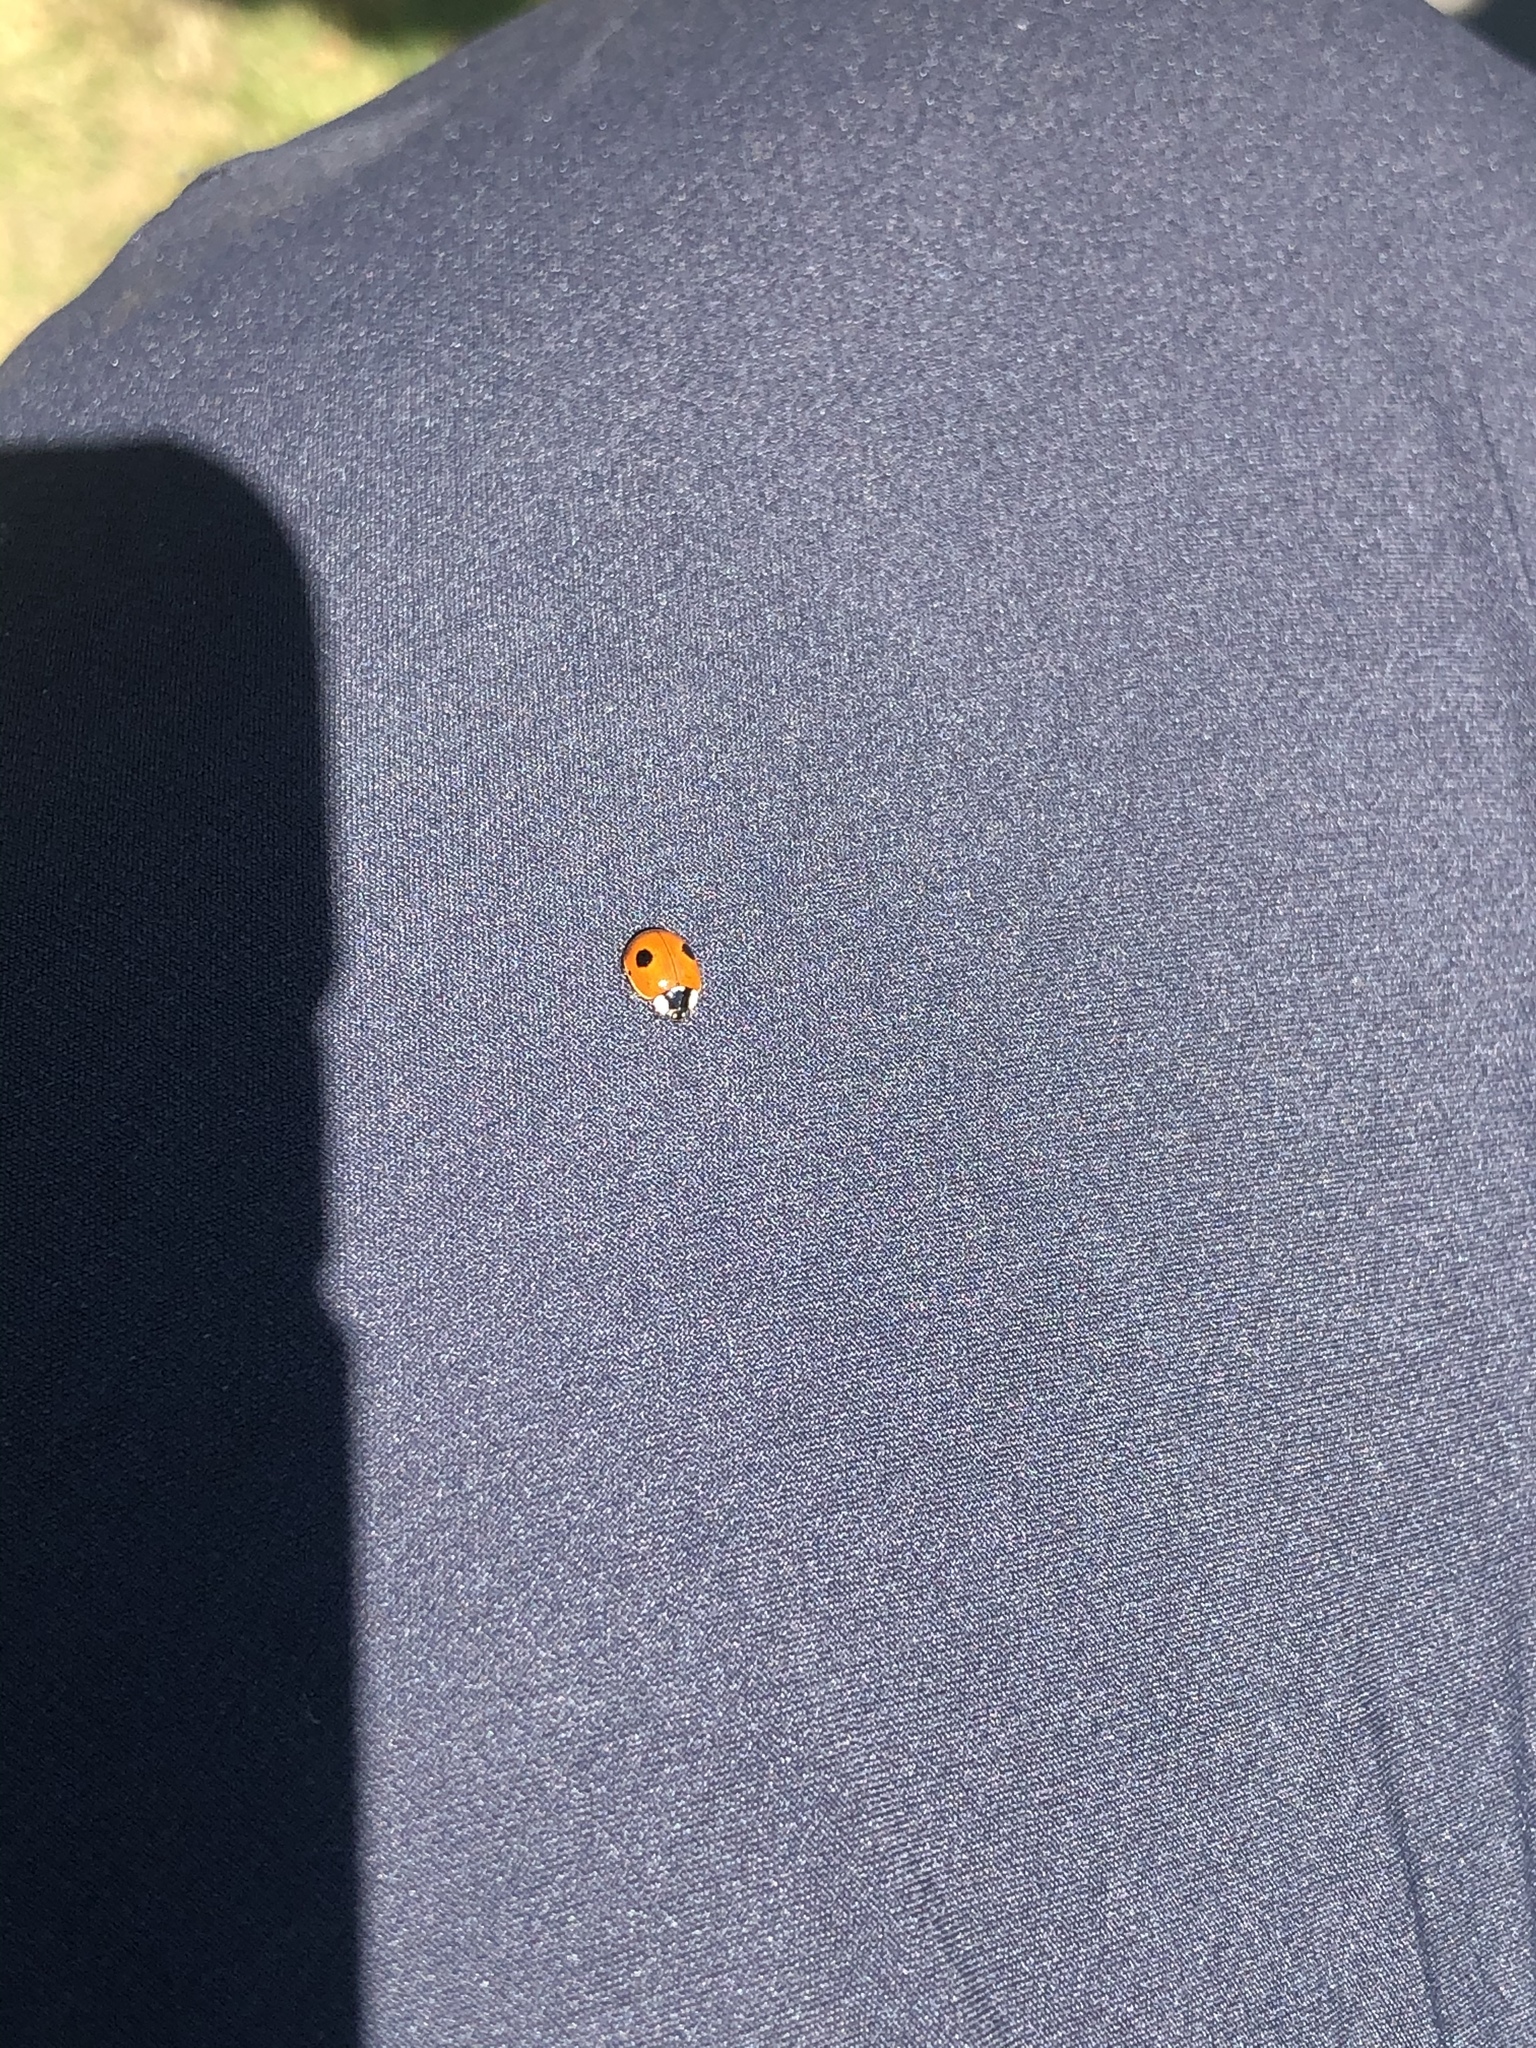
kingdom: Animalia
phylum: Arthropoda
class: Insecta
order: Coleoptera
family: Coccinellidae
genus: Adalia
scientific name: Adalia bipunctata
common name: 2-spot ladybird
